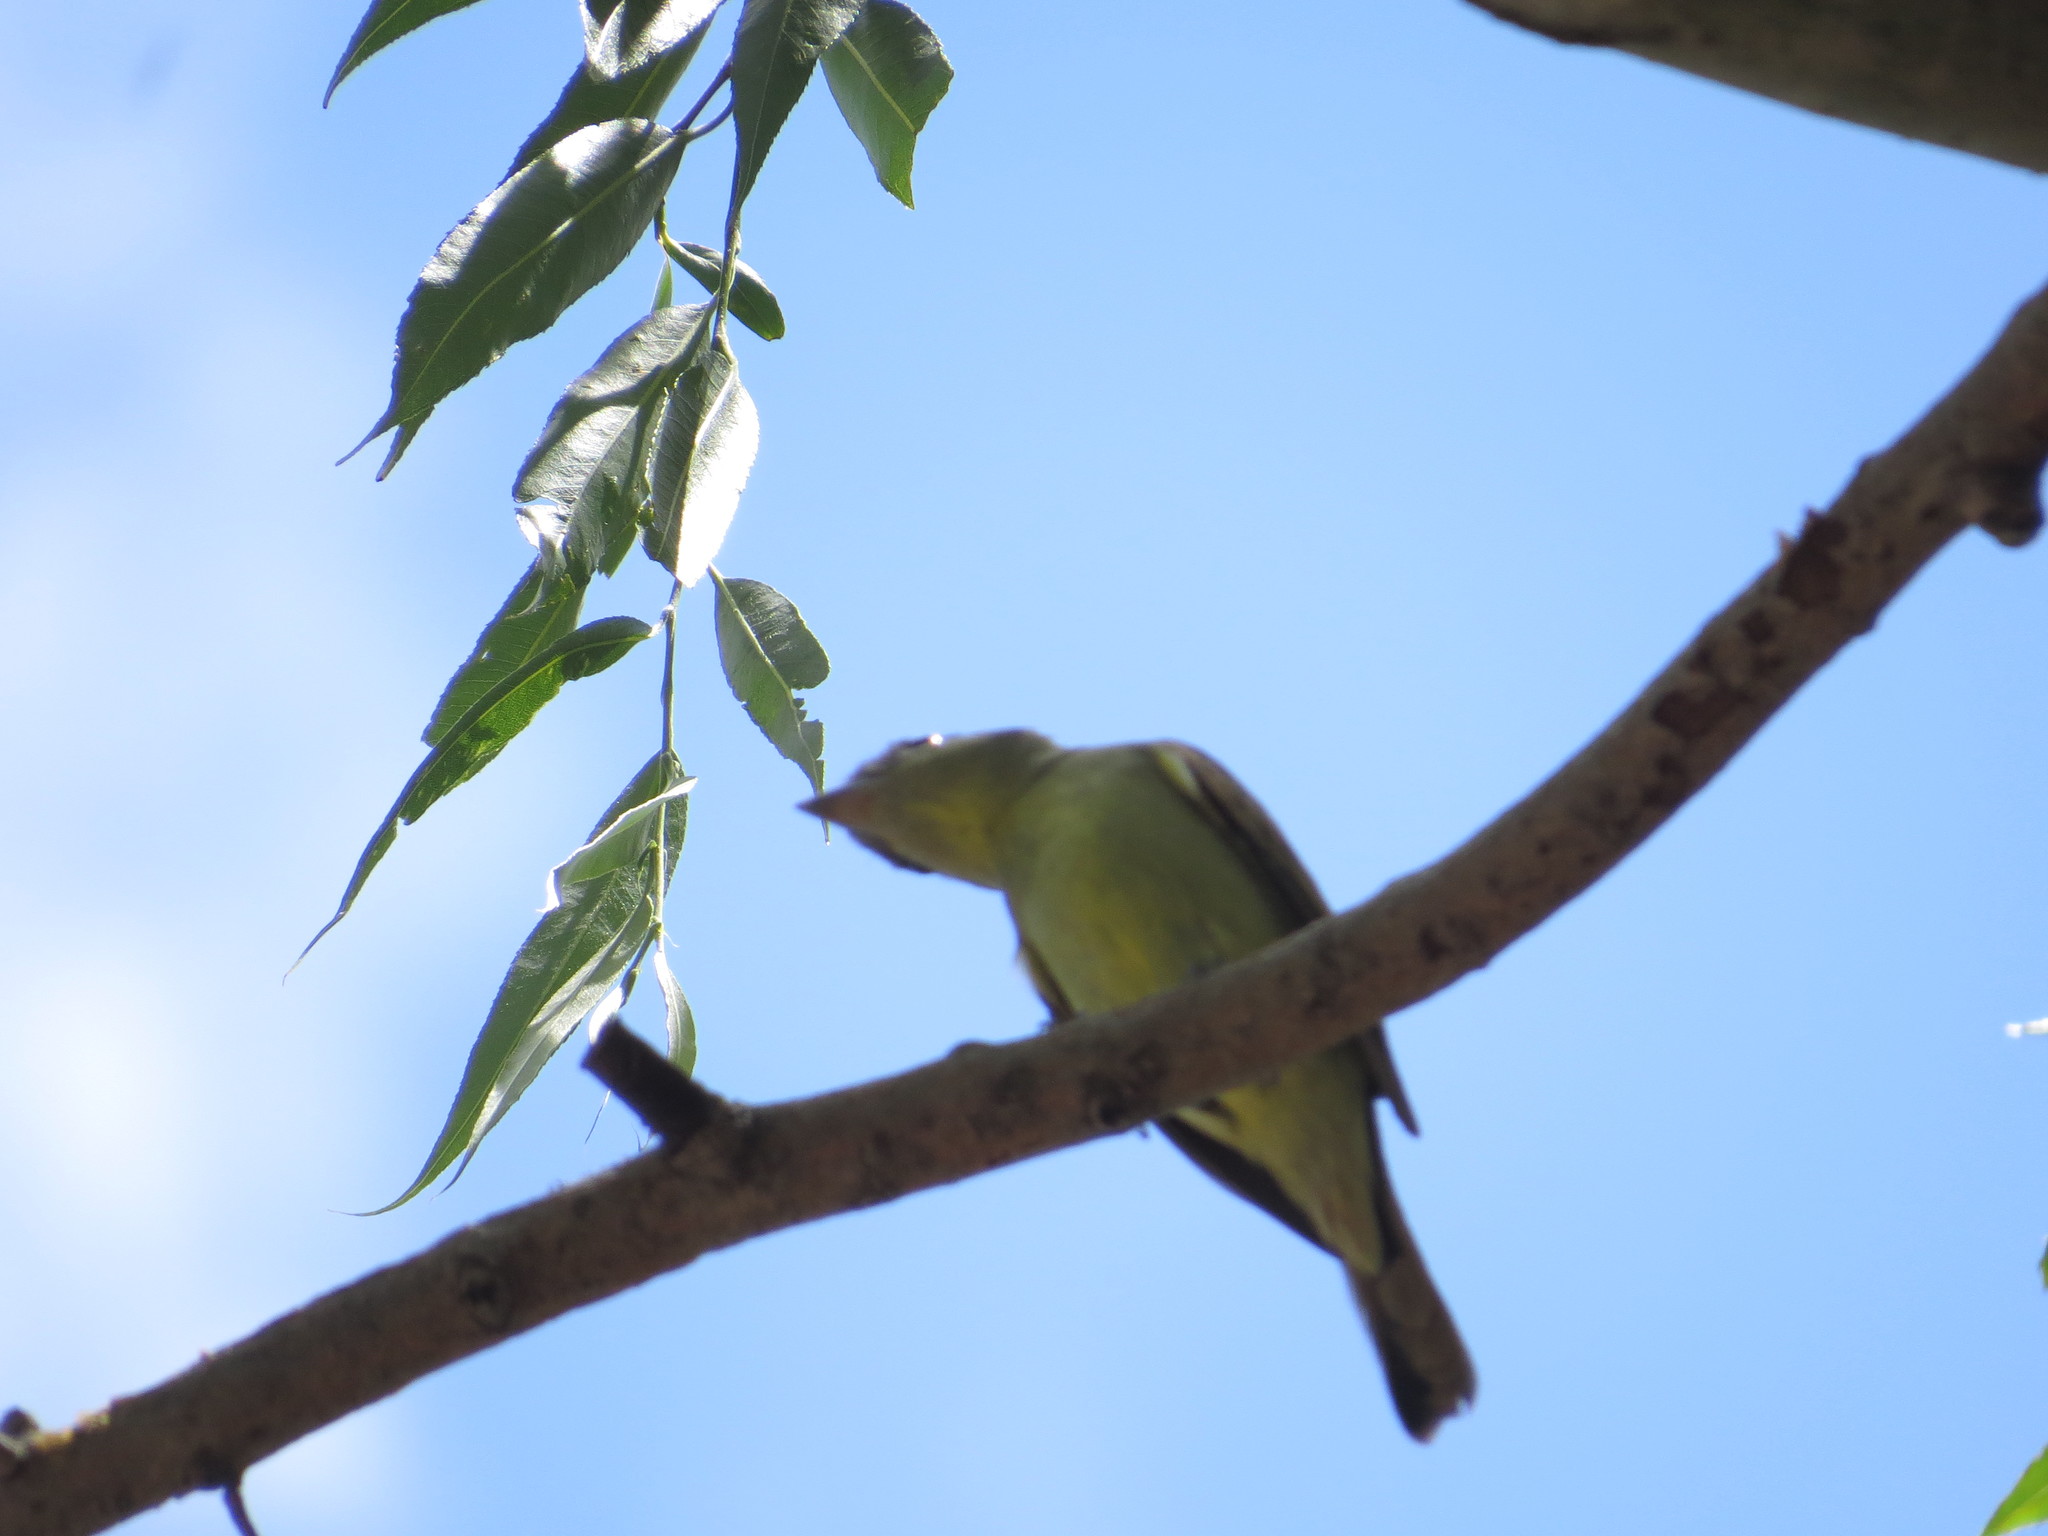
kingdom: Animalia
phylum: Chordata
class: Aves
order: Passeriformes
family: Cotingidae
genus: Pachyramphus
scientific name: Pachyramphus polychopterus
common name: White-winged becard
